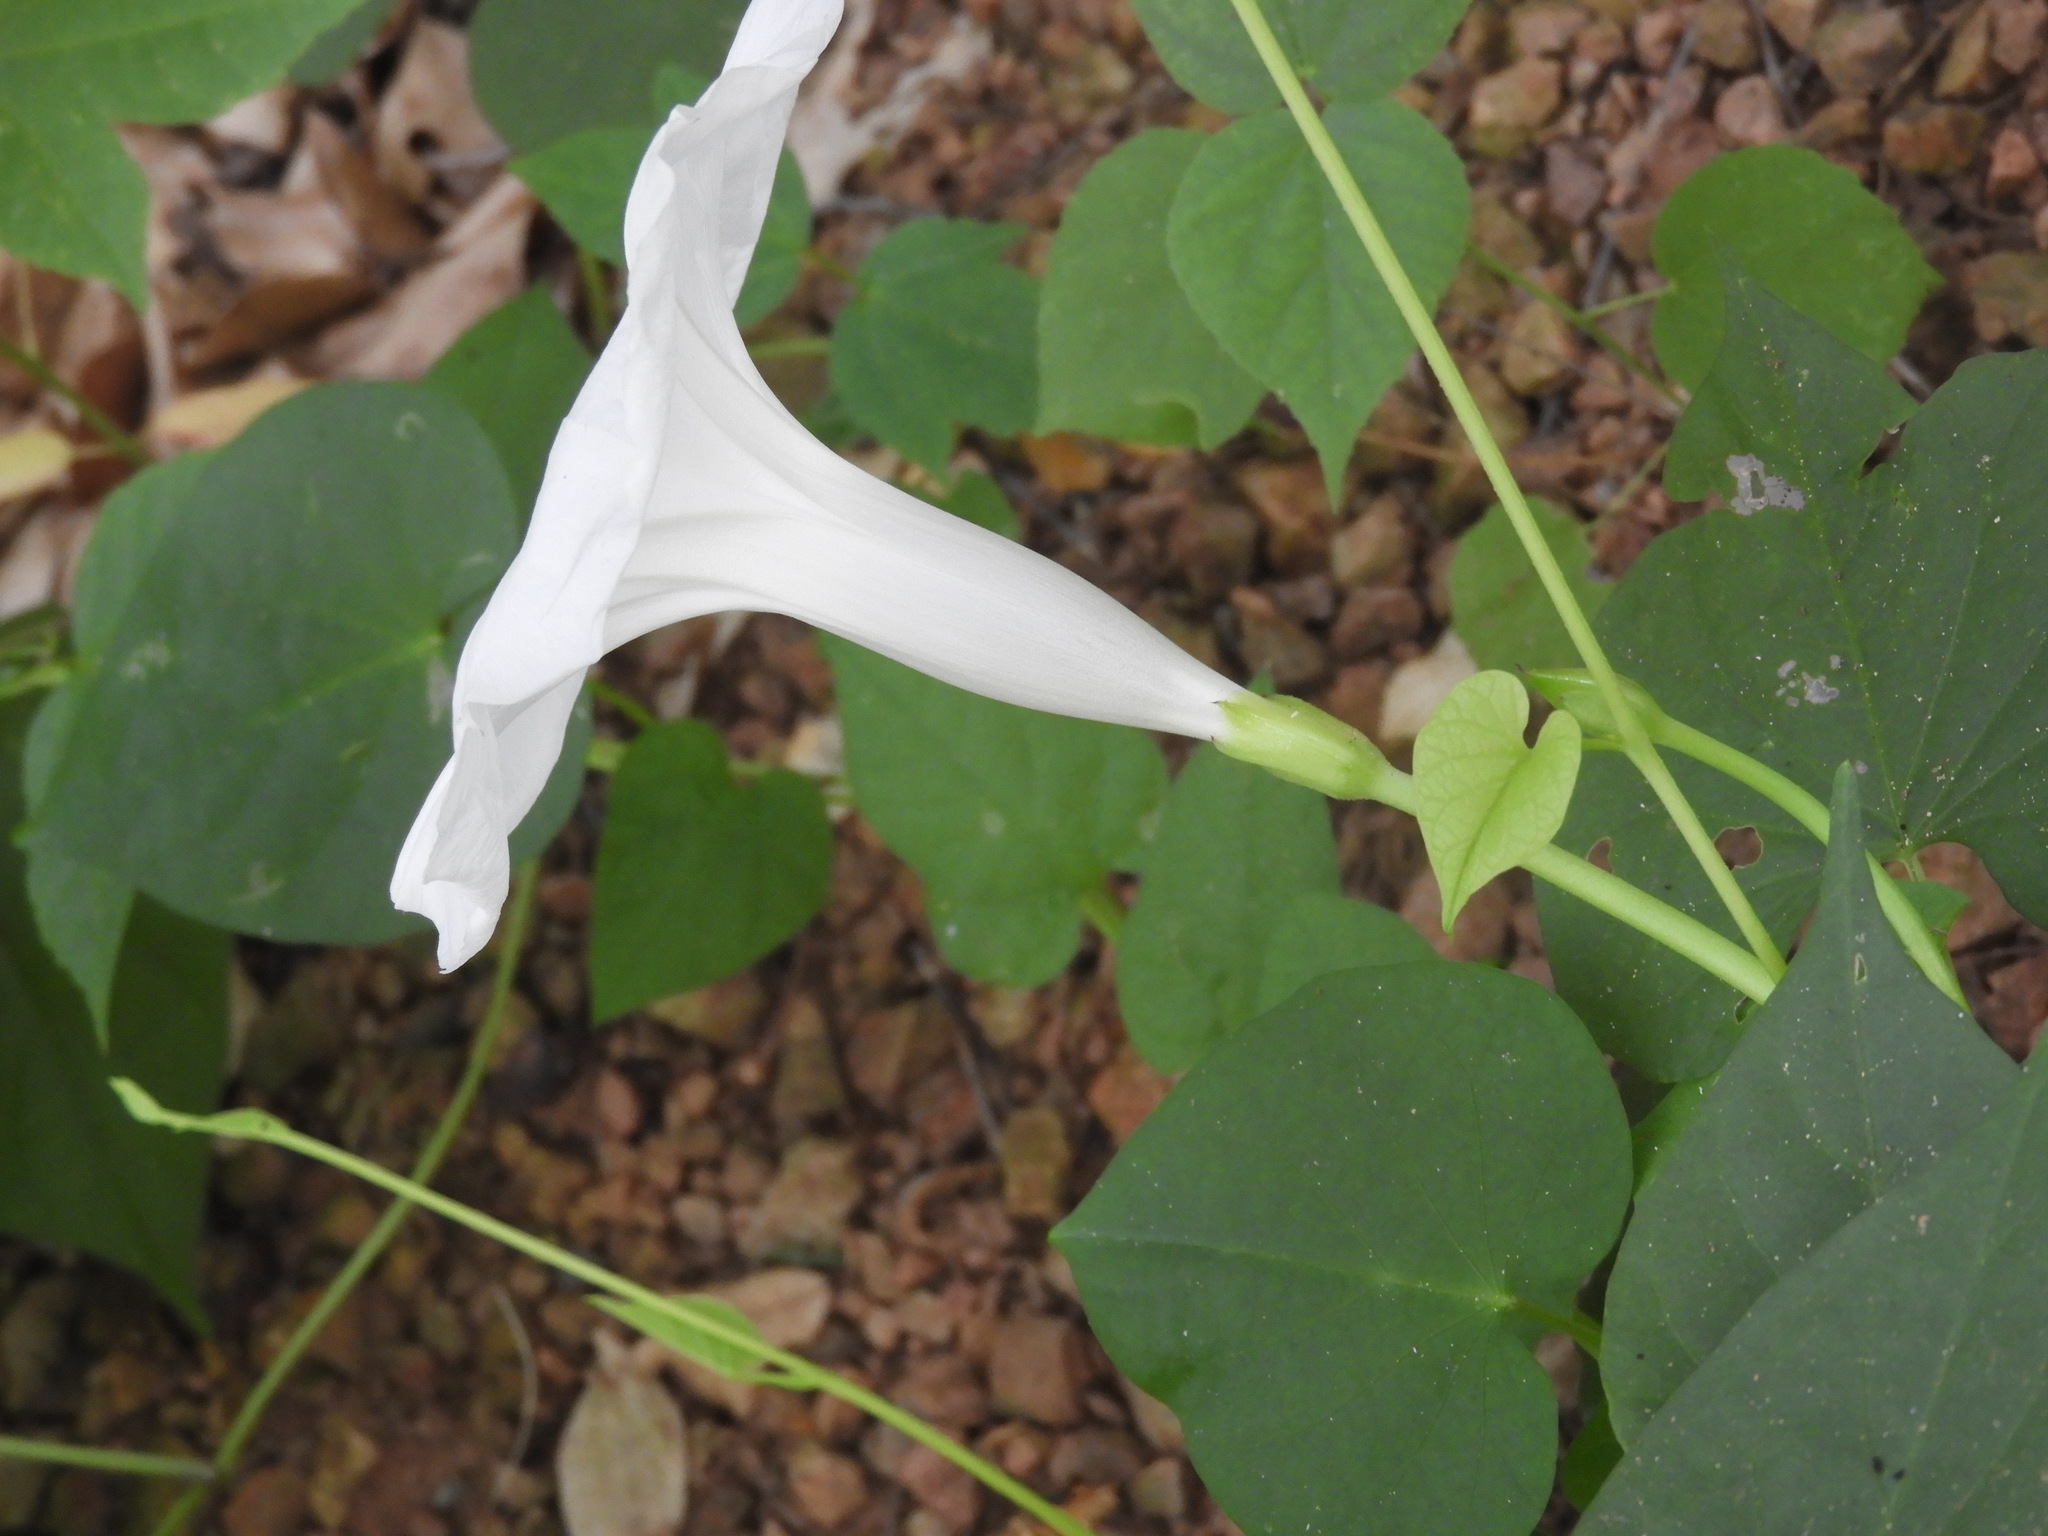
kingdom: Plantae
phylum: Tracheophyta
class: Magnoliopsida
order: Solanales
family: Convolvulaceae
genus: Ipomoea
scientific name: Ipomoea scopulorum
